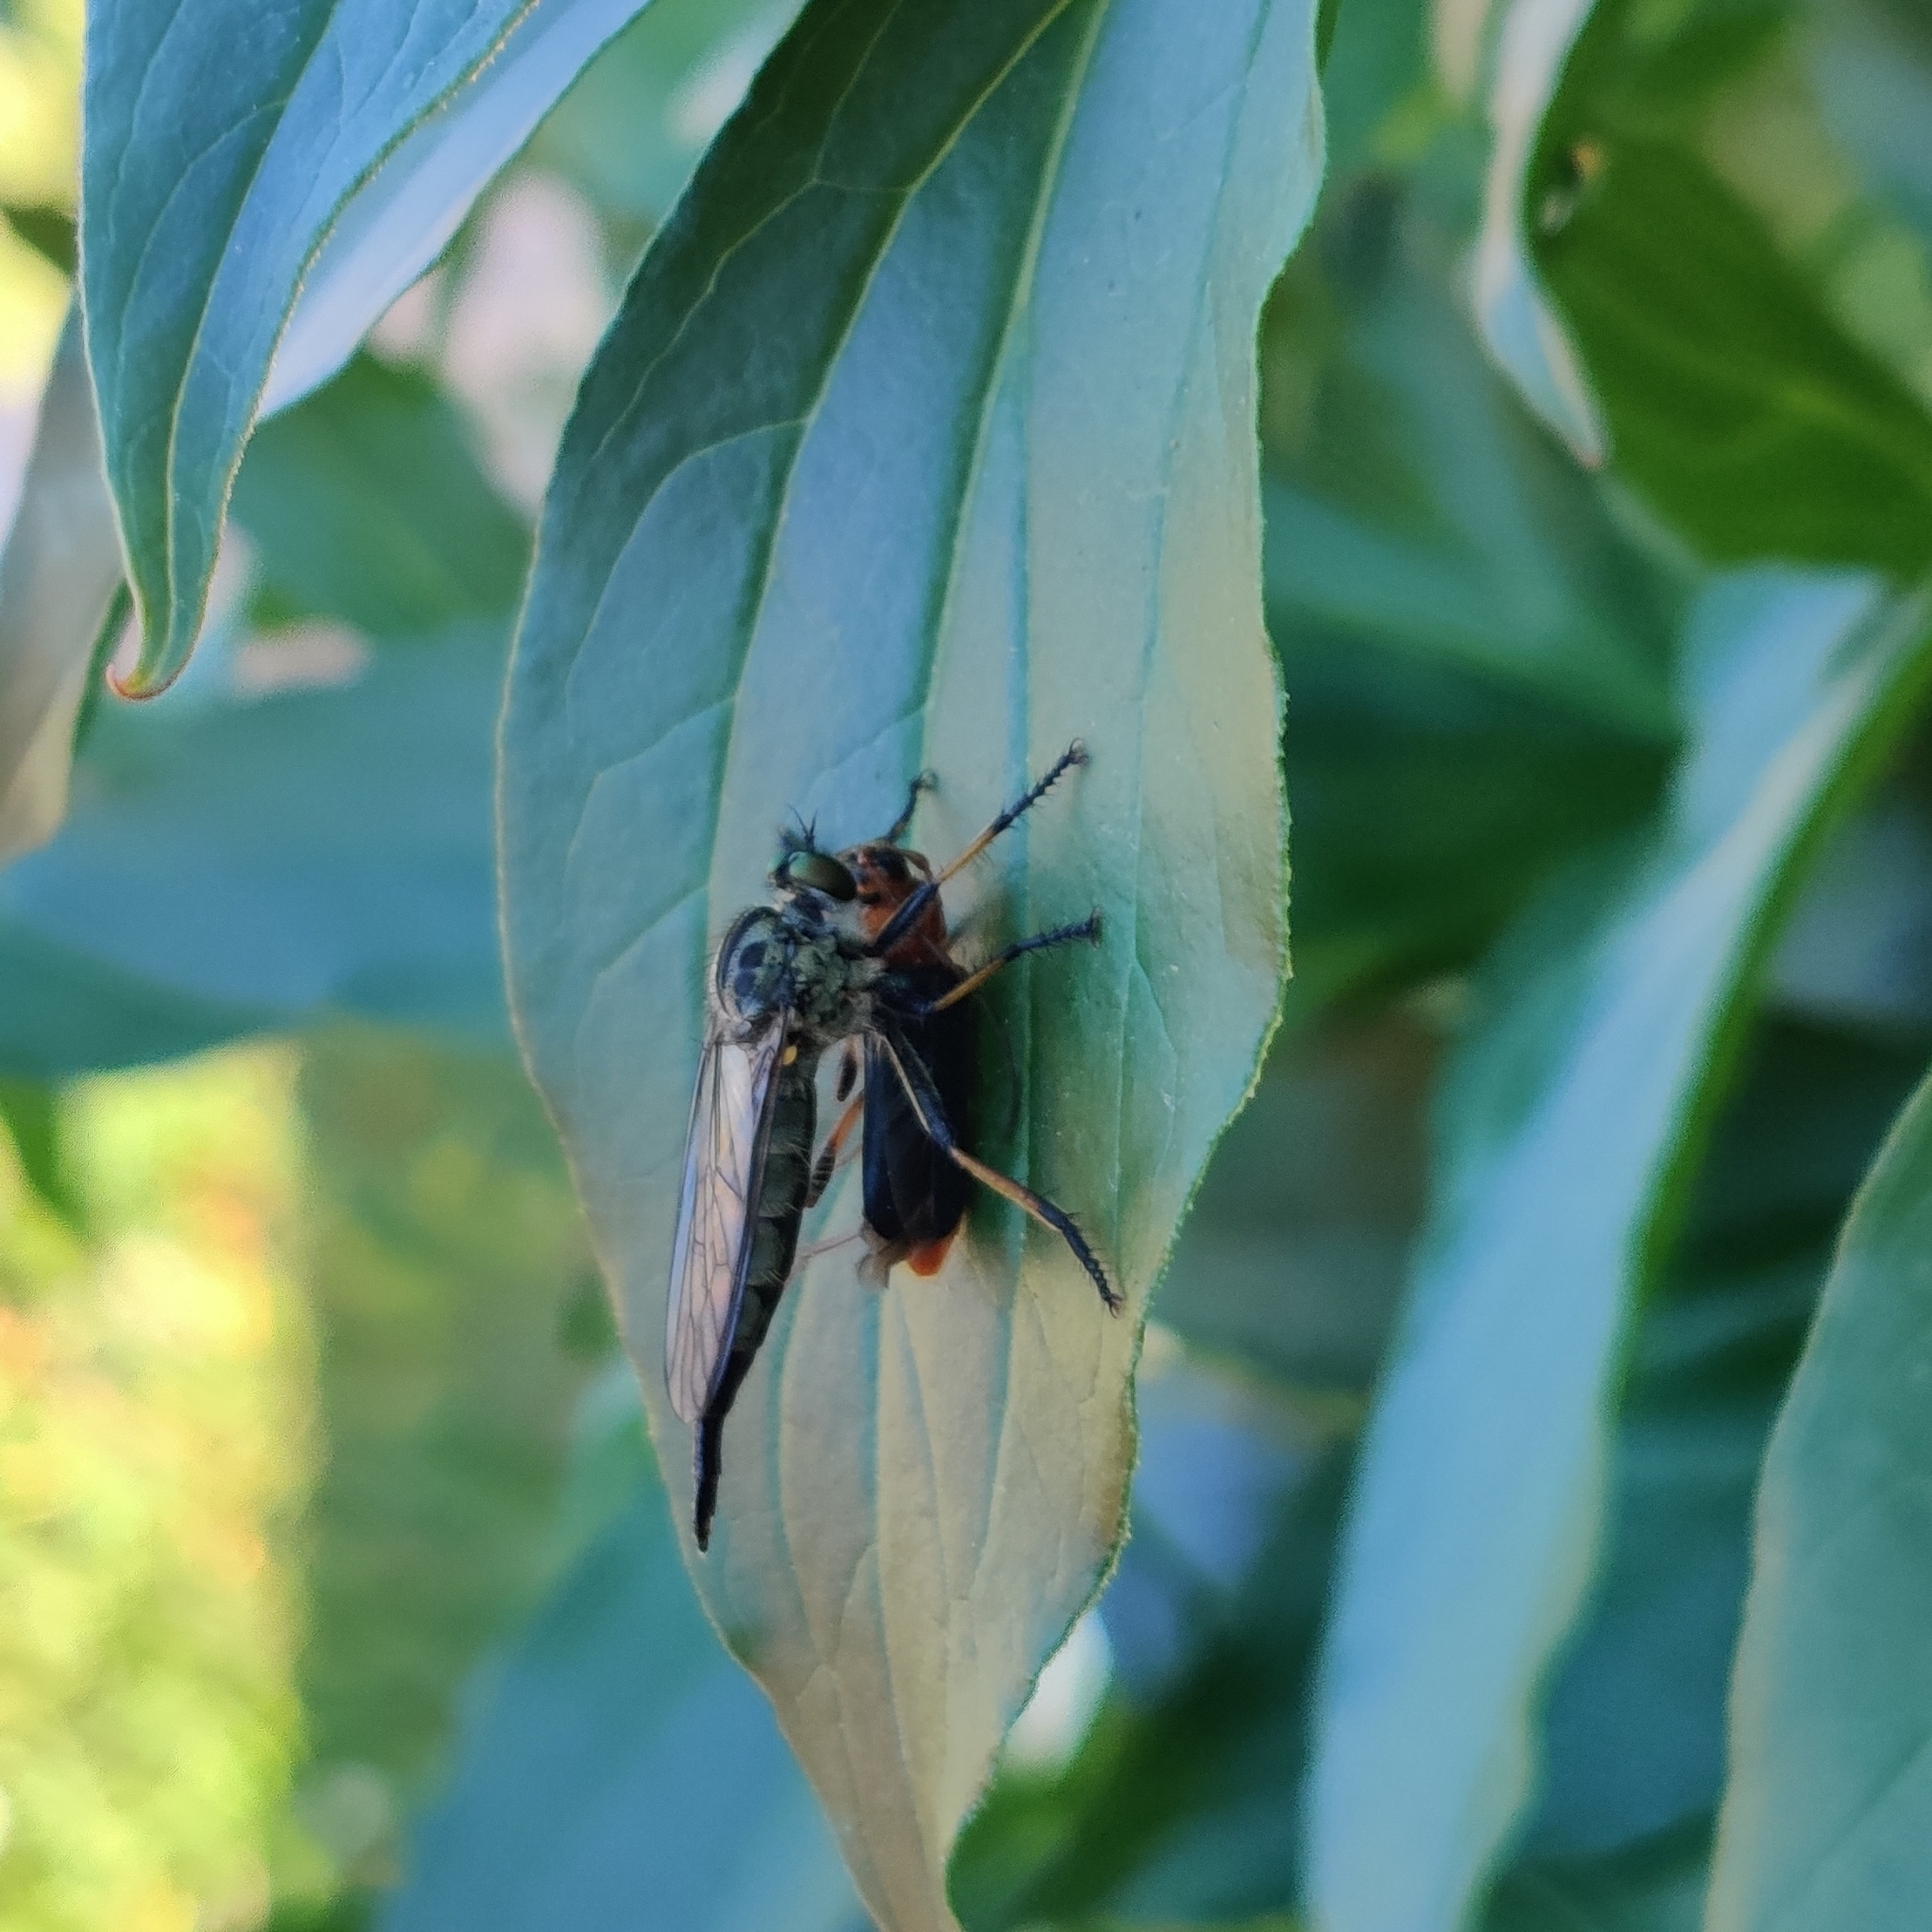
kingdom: Animalia
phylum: Arthropoda
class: Insecta
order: Diptera
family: Asilidae
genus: Neoitamus
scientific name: Neoitamus
